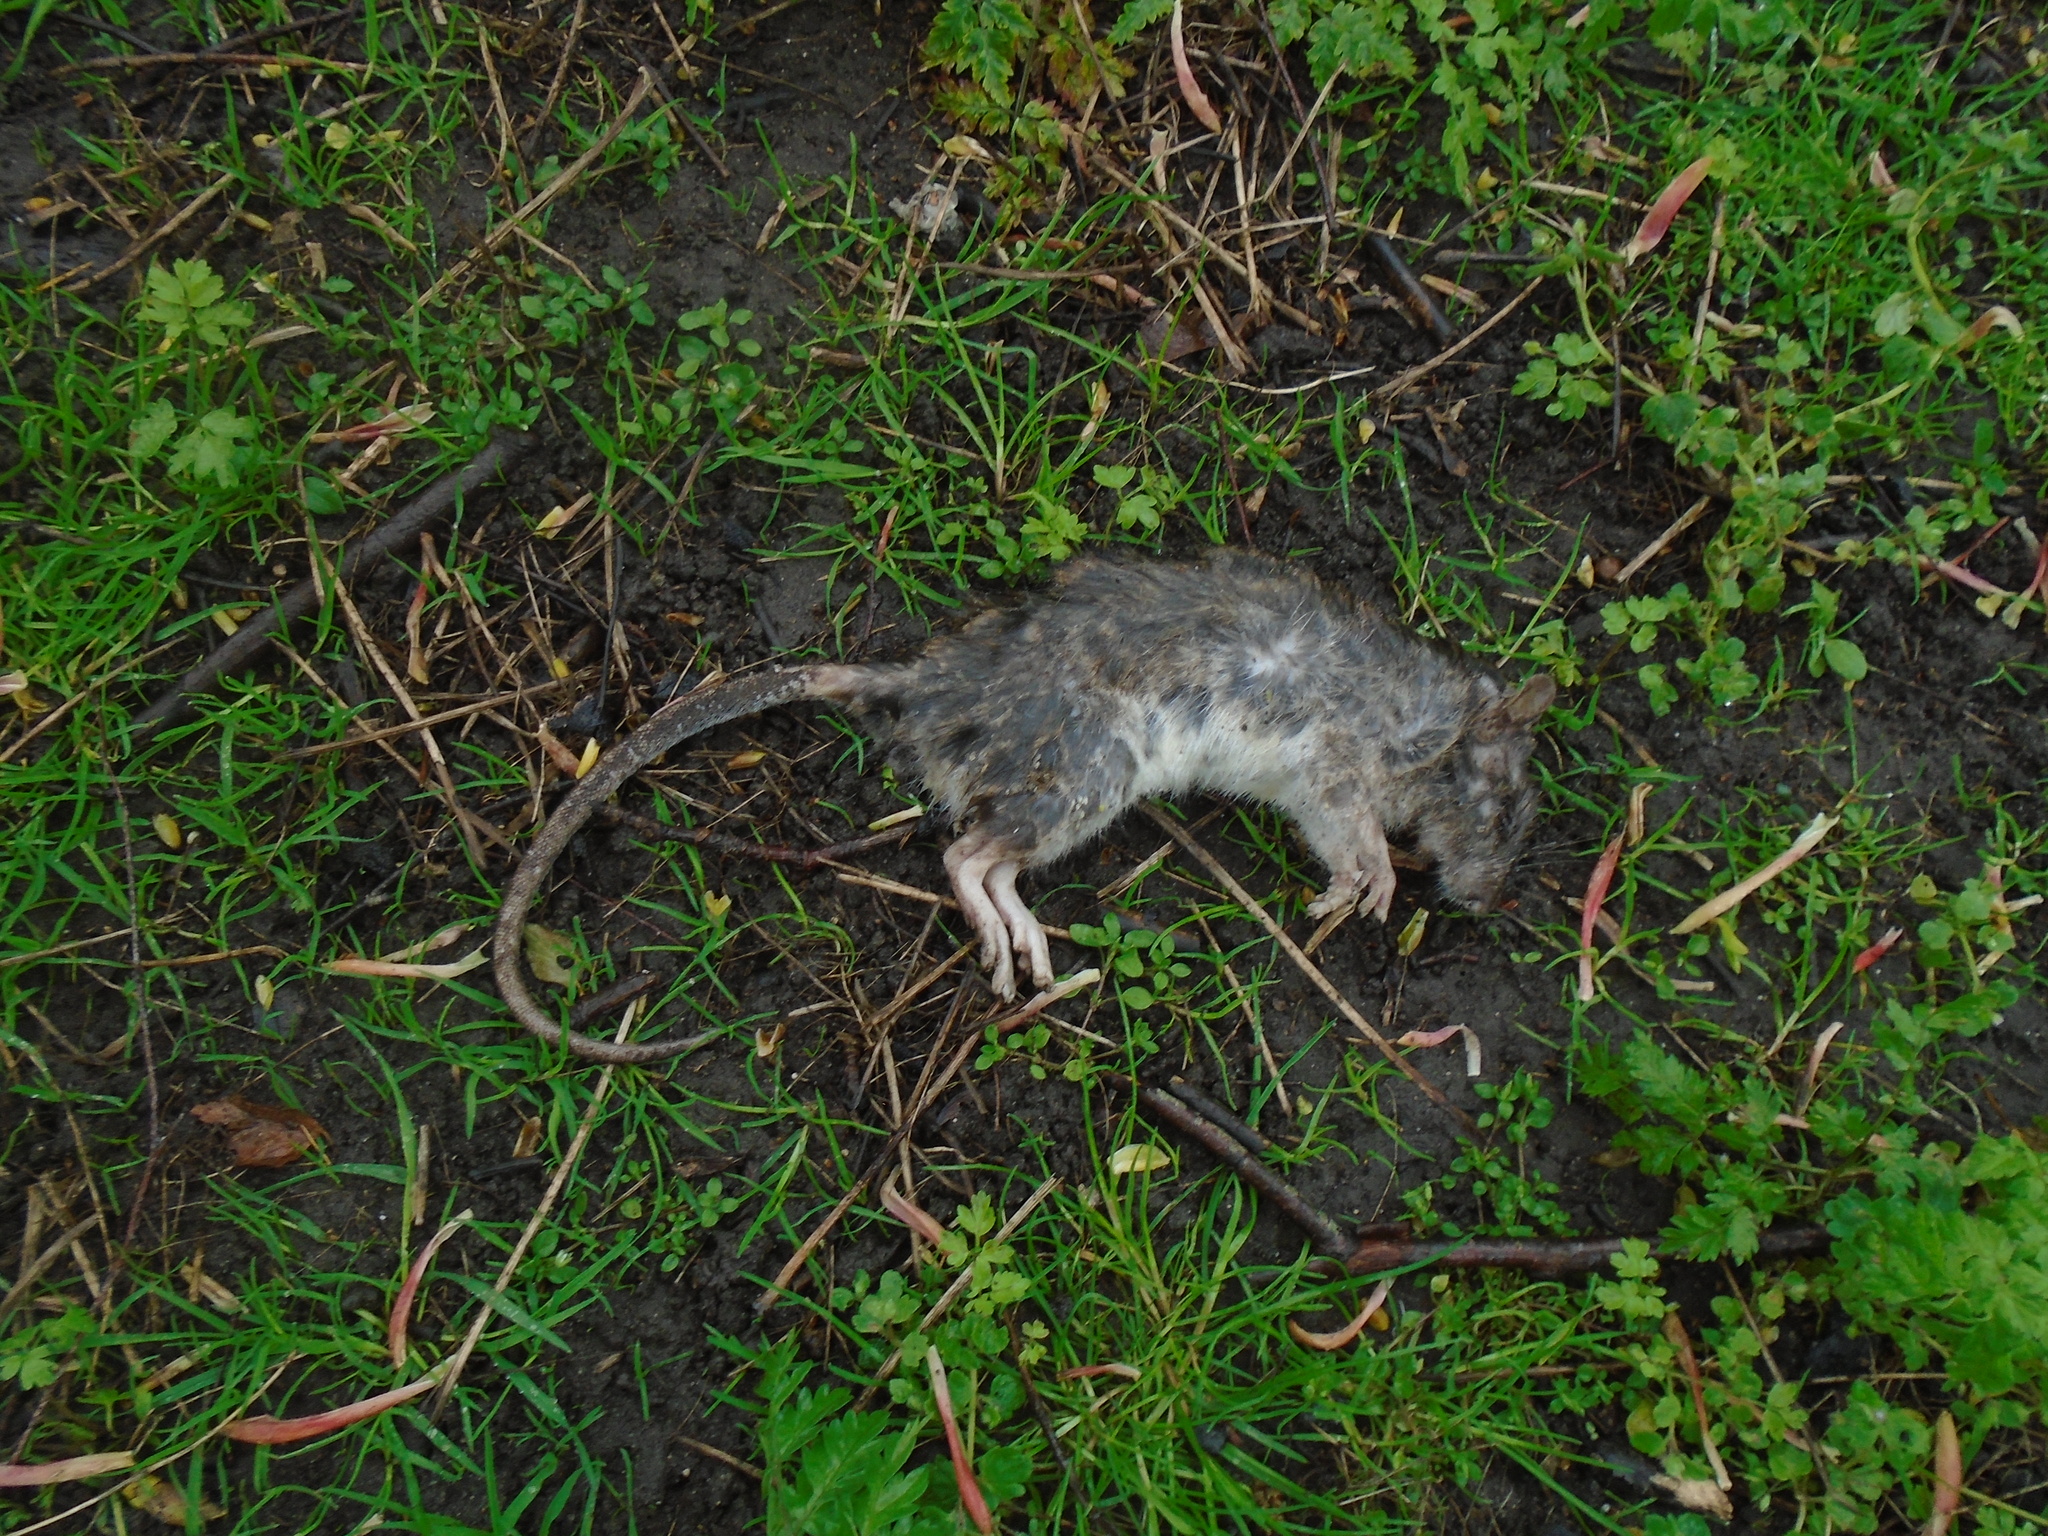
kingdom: Animalia
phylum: Chordata
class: Mammalia
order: Rodentia
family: Muridae
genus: Rattus
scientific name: Rattus norvegicus
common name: Brown rat
